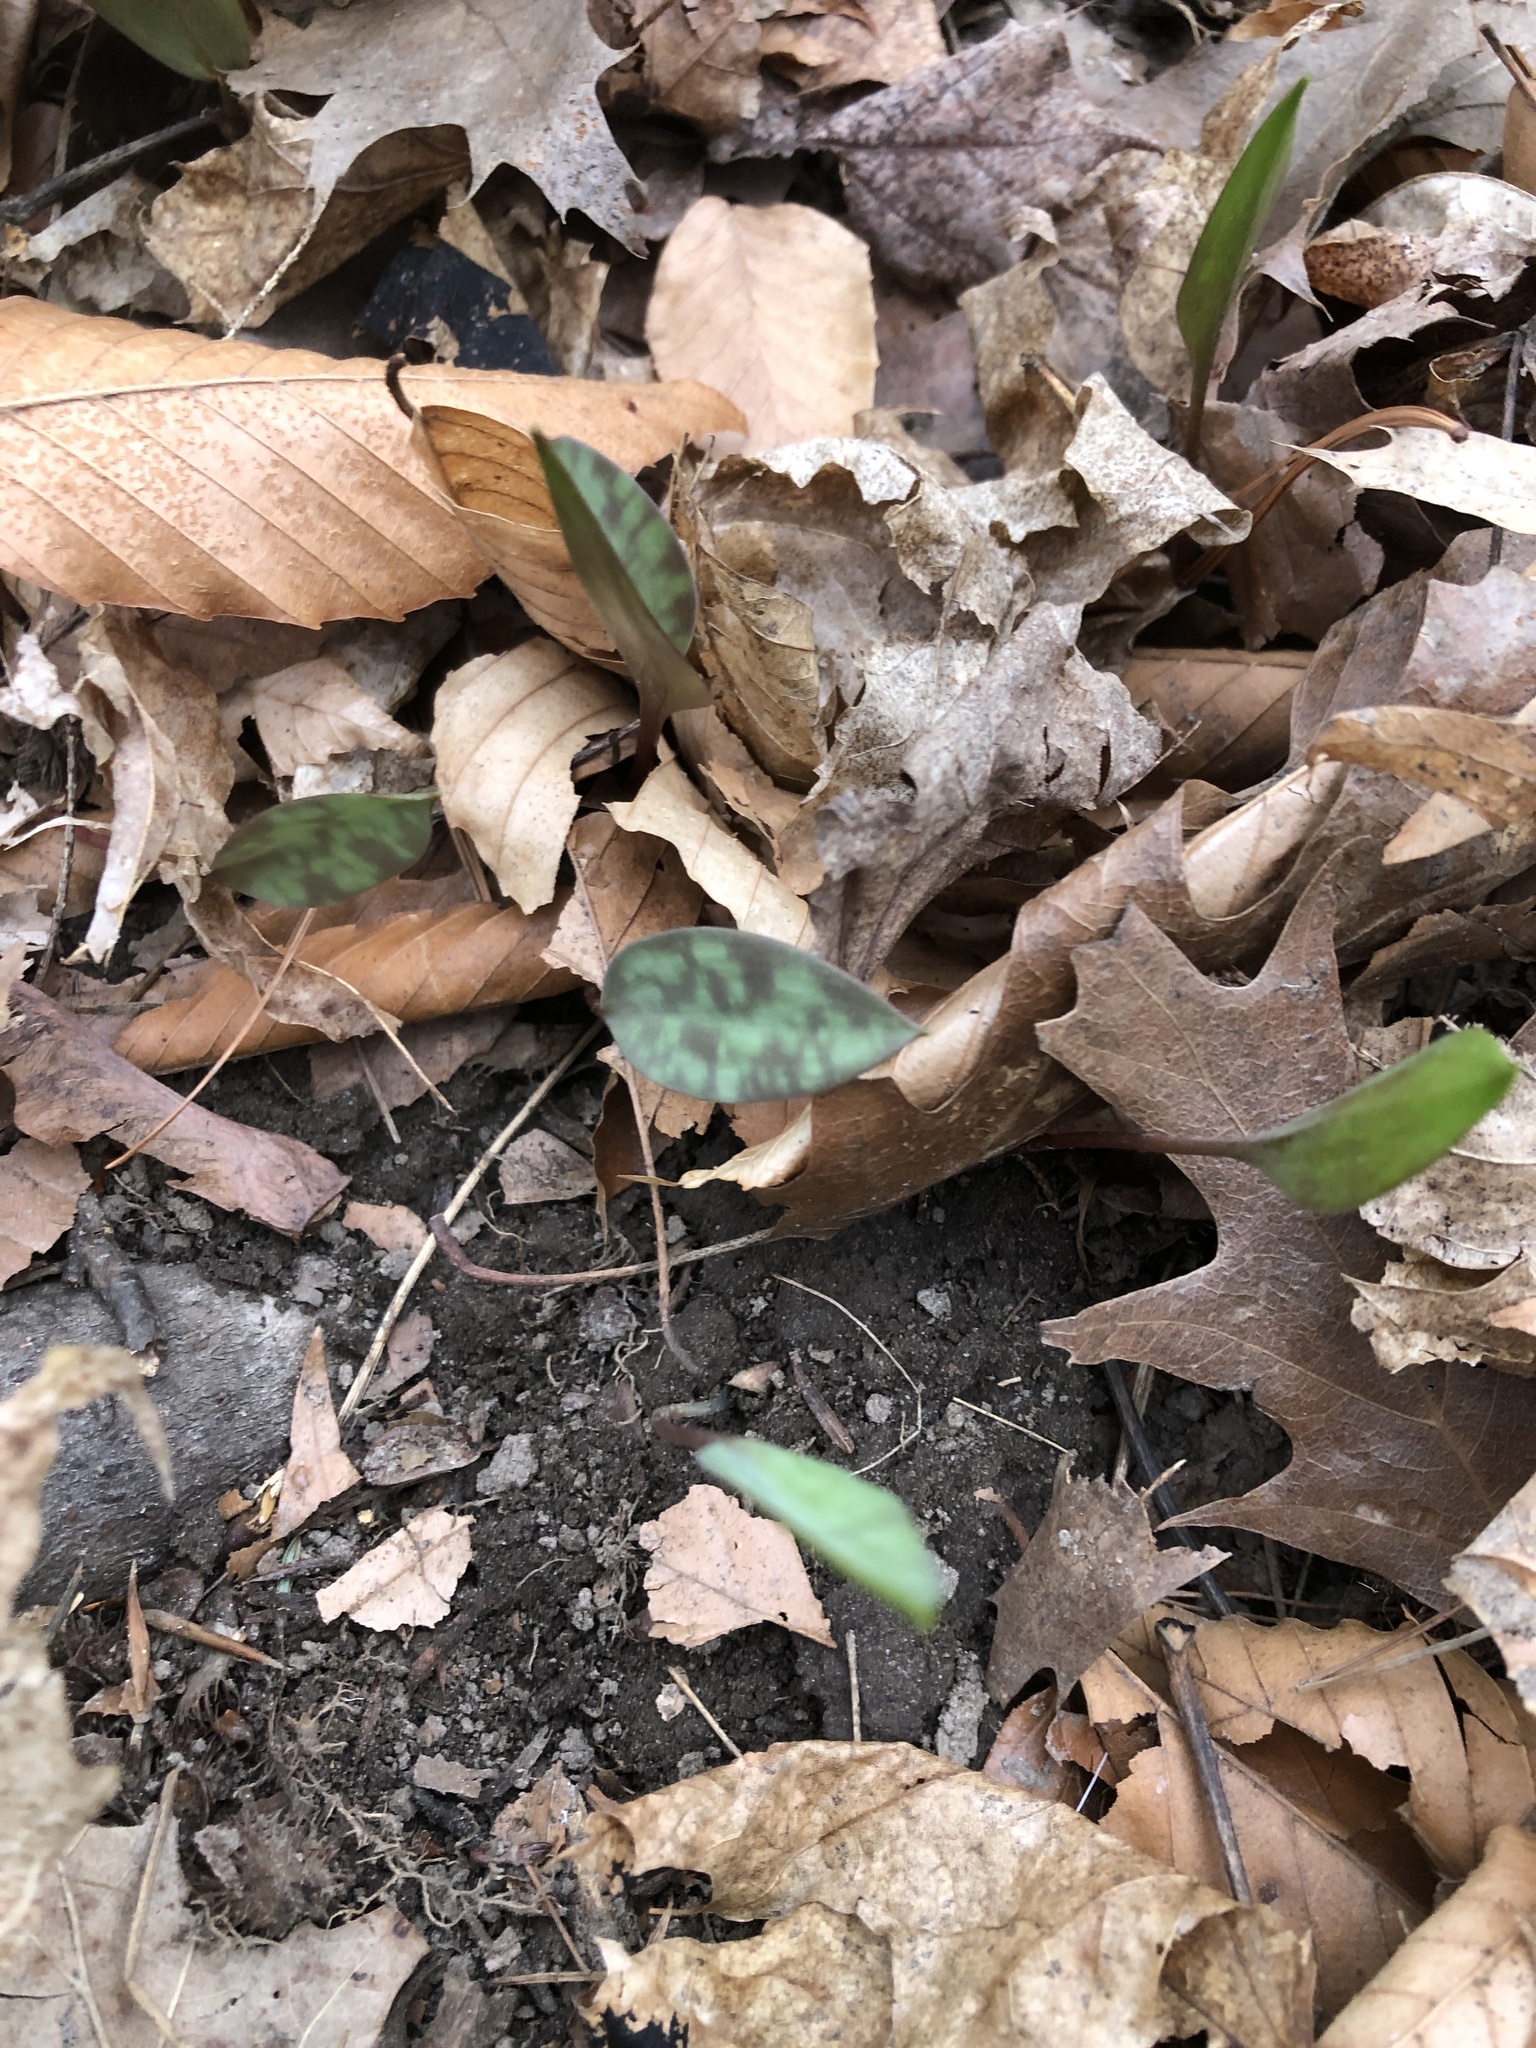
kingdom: Plantae
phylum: Tracheophyta
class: Liliopsida
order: Liliales
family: Liliaceae
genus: Erythronium
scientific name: Erythronium americanum
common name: Yellow adder's-tongue
